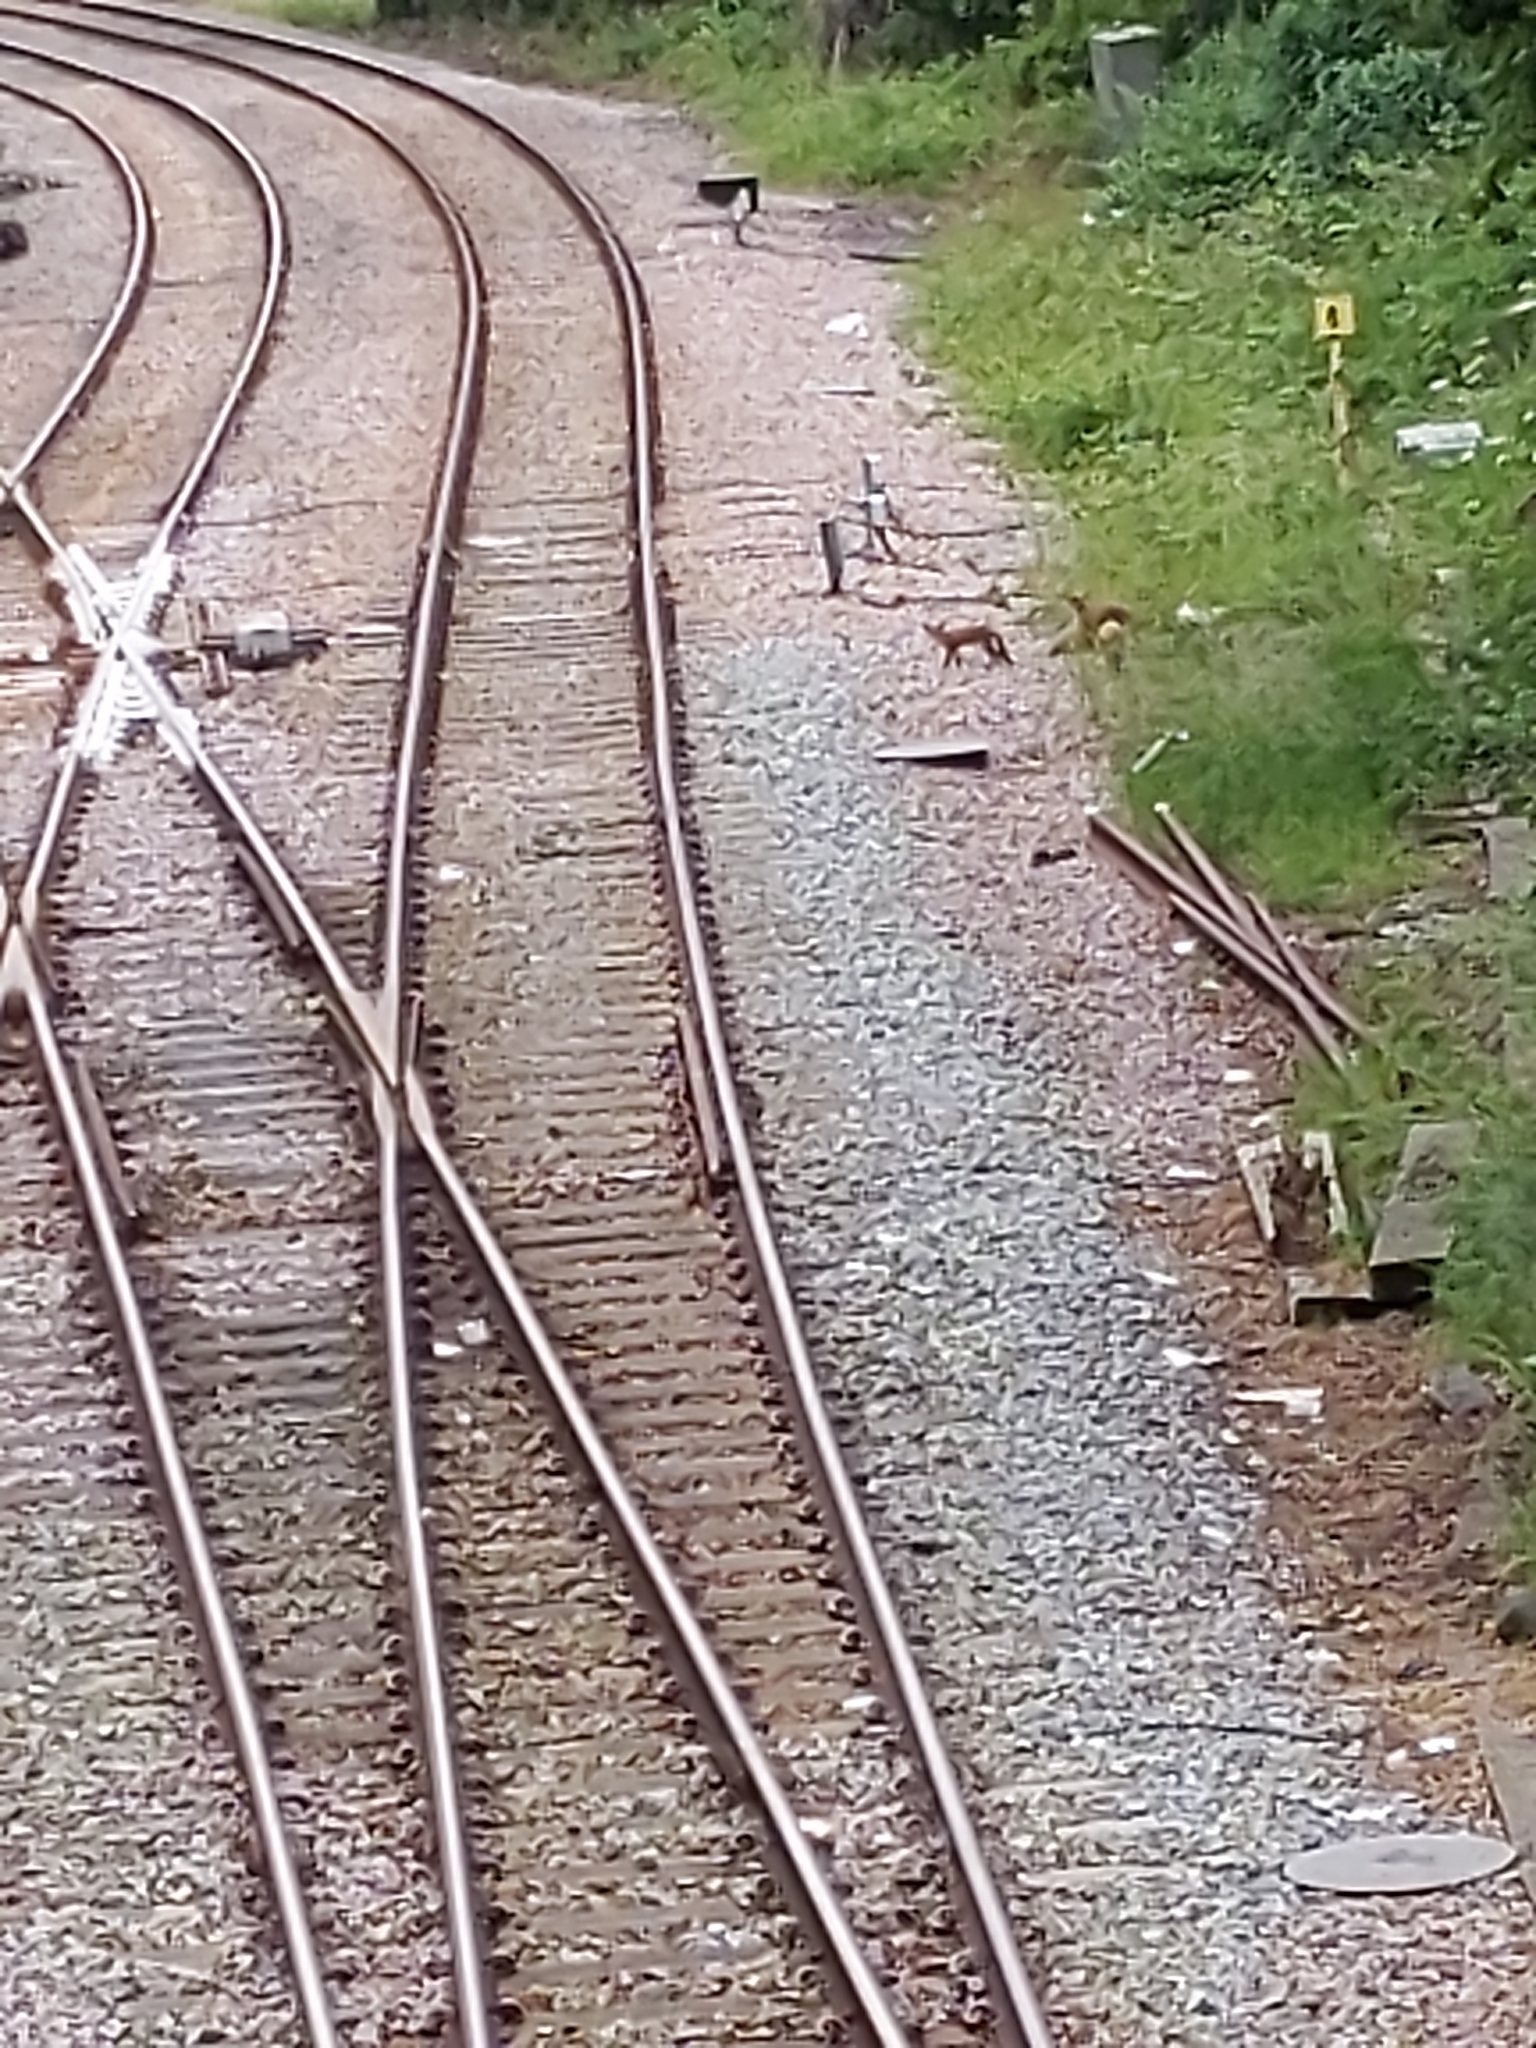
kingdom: Animalia
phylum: Chordata
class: Mammalia
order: Carnivora
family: Canidae
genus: Vulpes
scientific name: Vulpes vulpes
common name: Red fox
